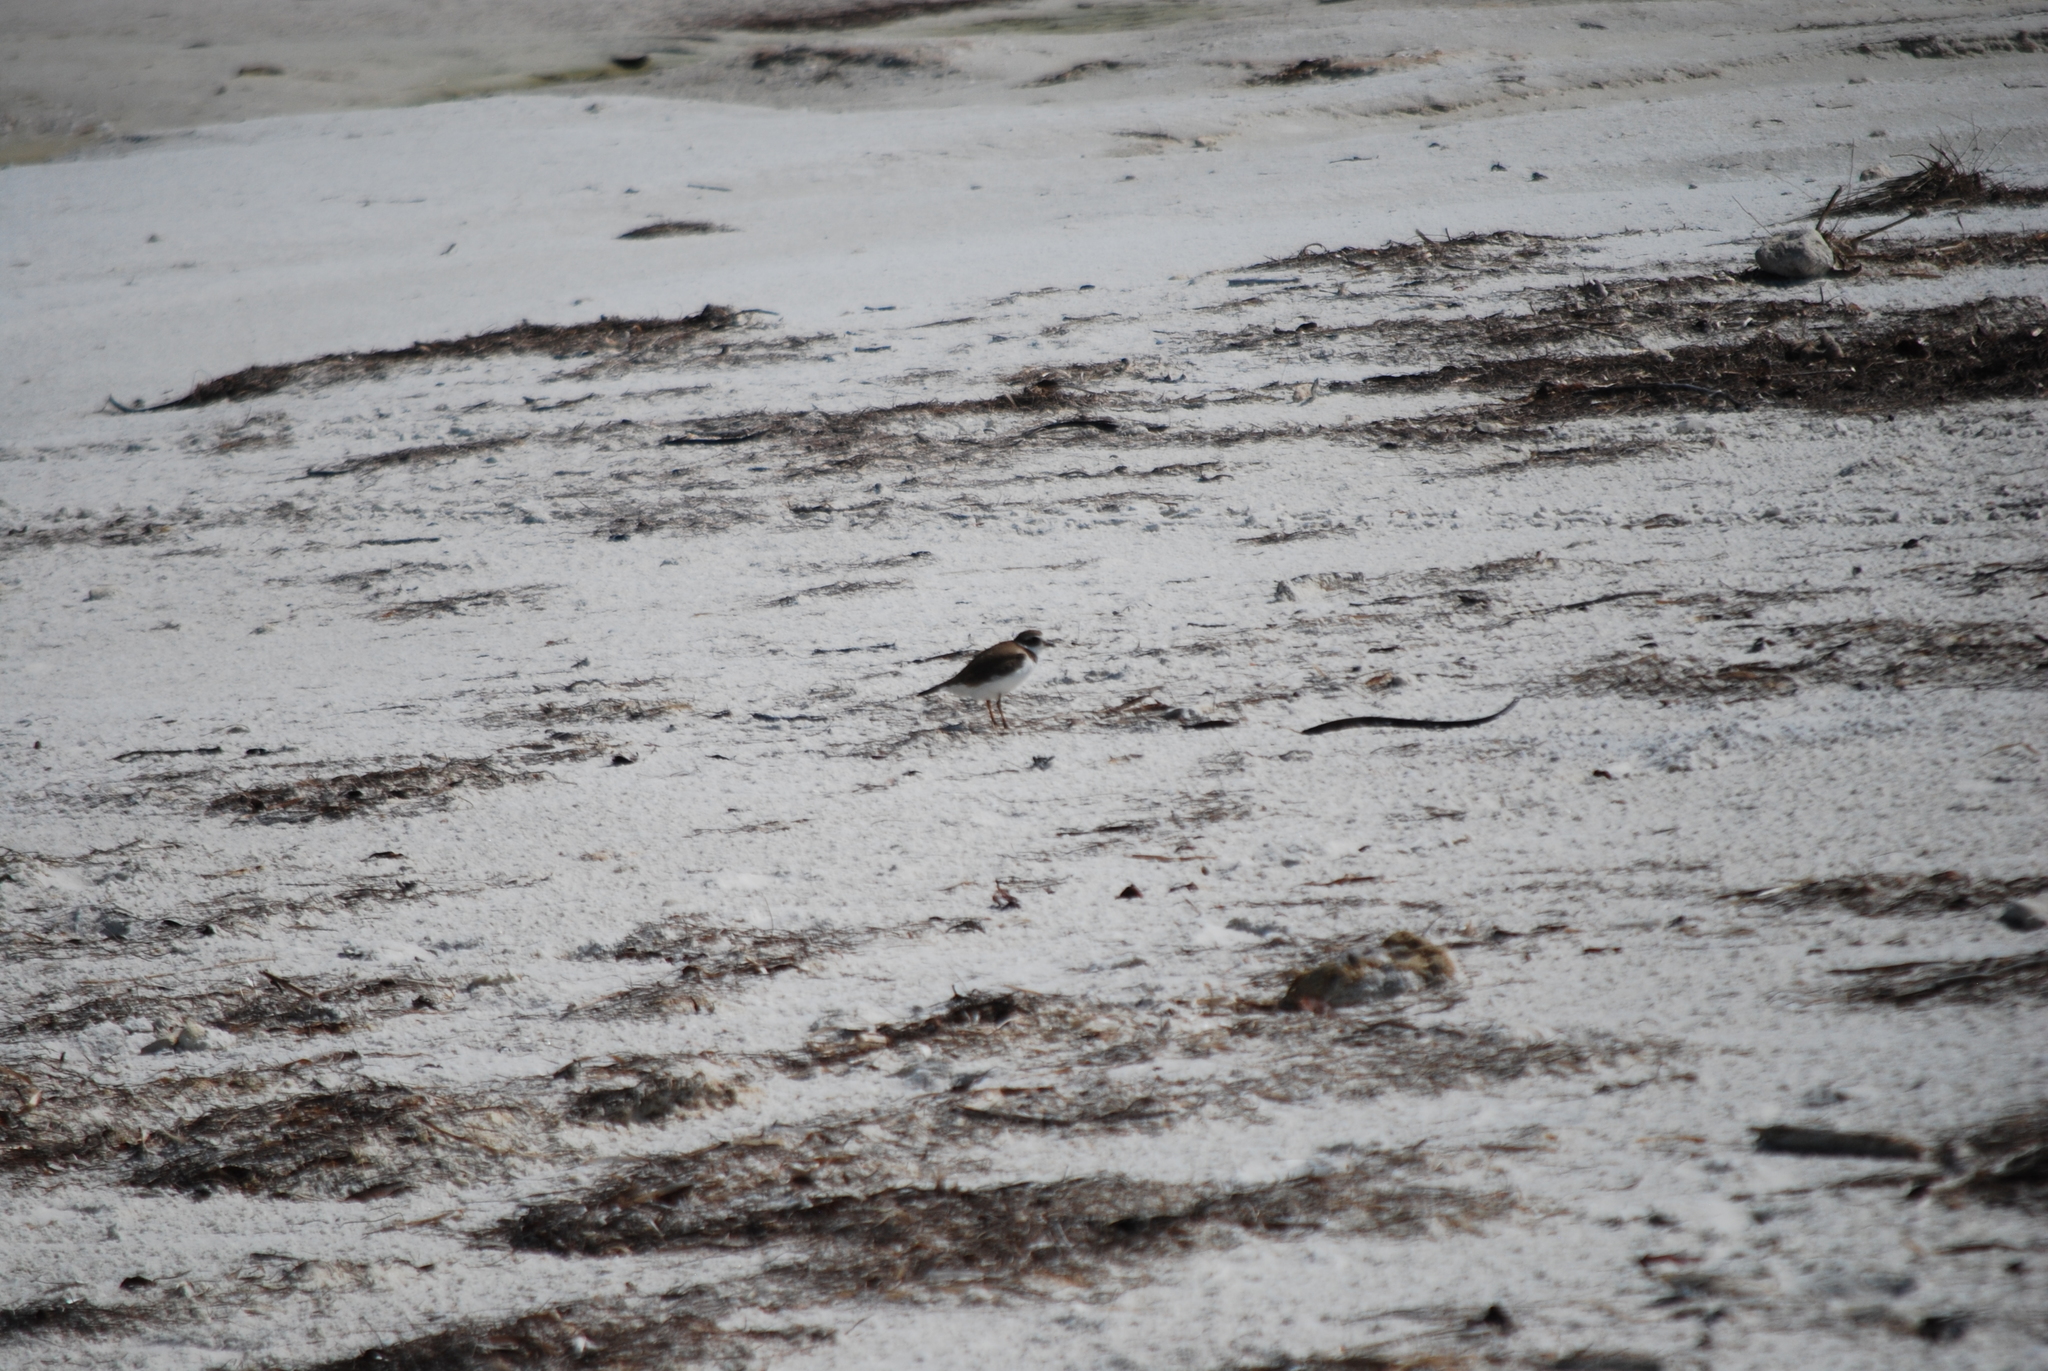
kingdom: Animalia
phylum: Chordata
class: Aves
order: Charadriiformes
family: Charadriidae
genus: Charadrius
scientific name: Charadrius semipalmatus
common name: Semipalmated plover
